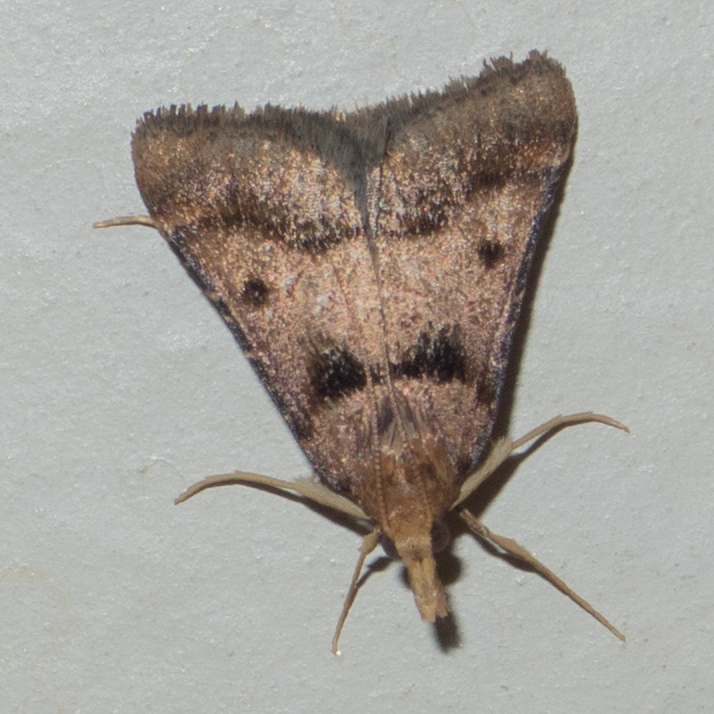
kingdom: Animalia
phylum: Arthropoda
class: Insecta
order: Lepidoptera
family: Pyralidae
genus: Stemmatophora
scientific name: Stemmatophora brunnealis
